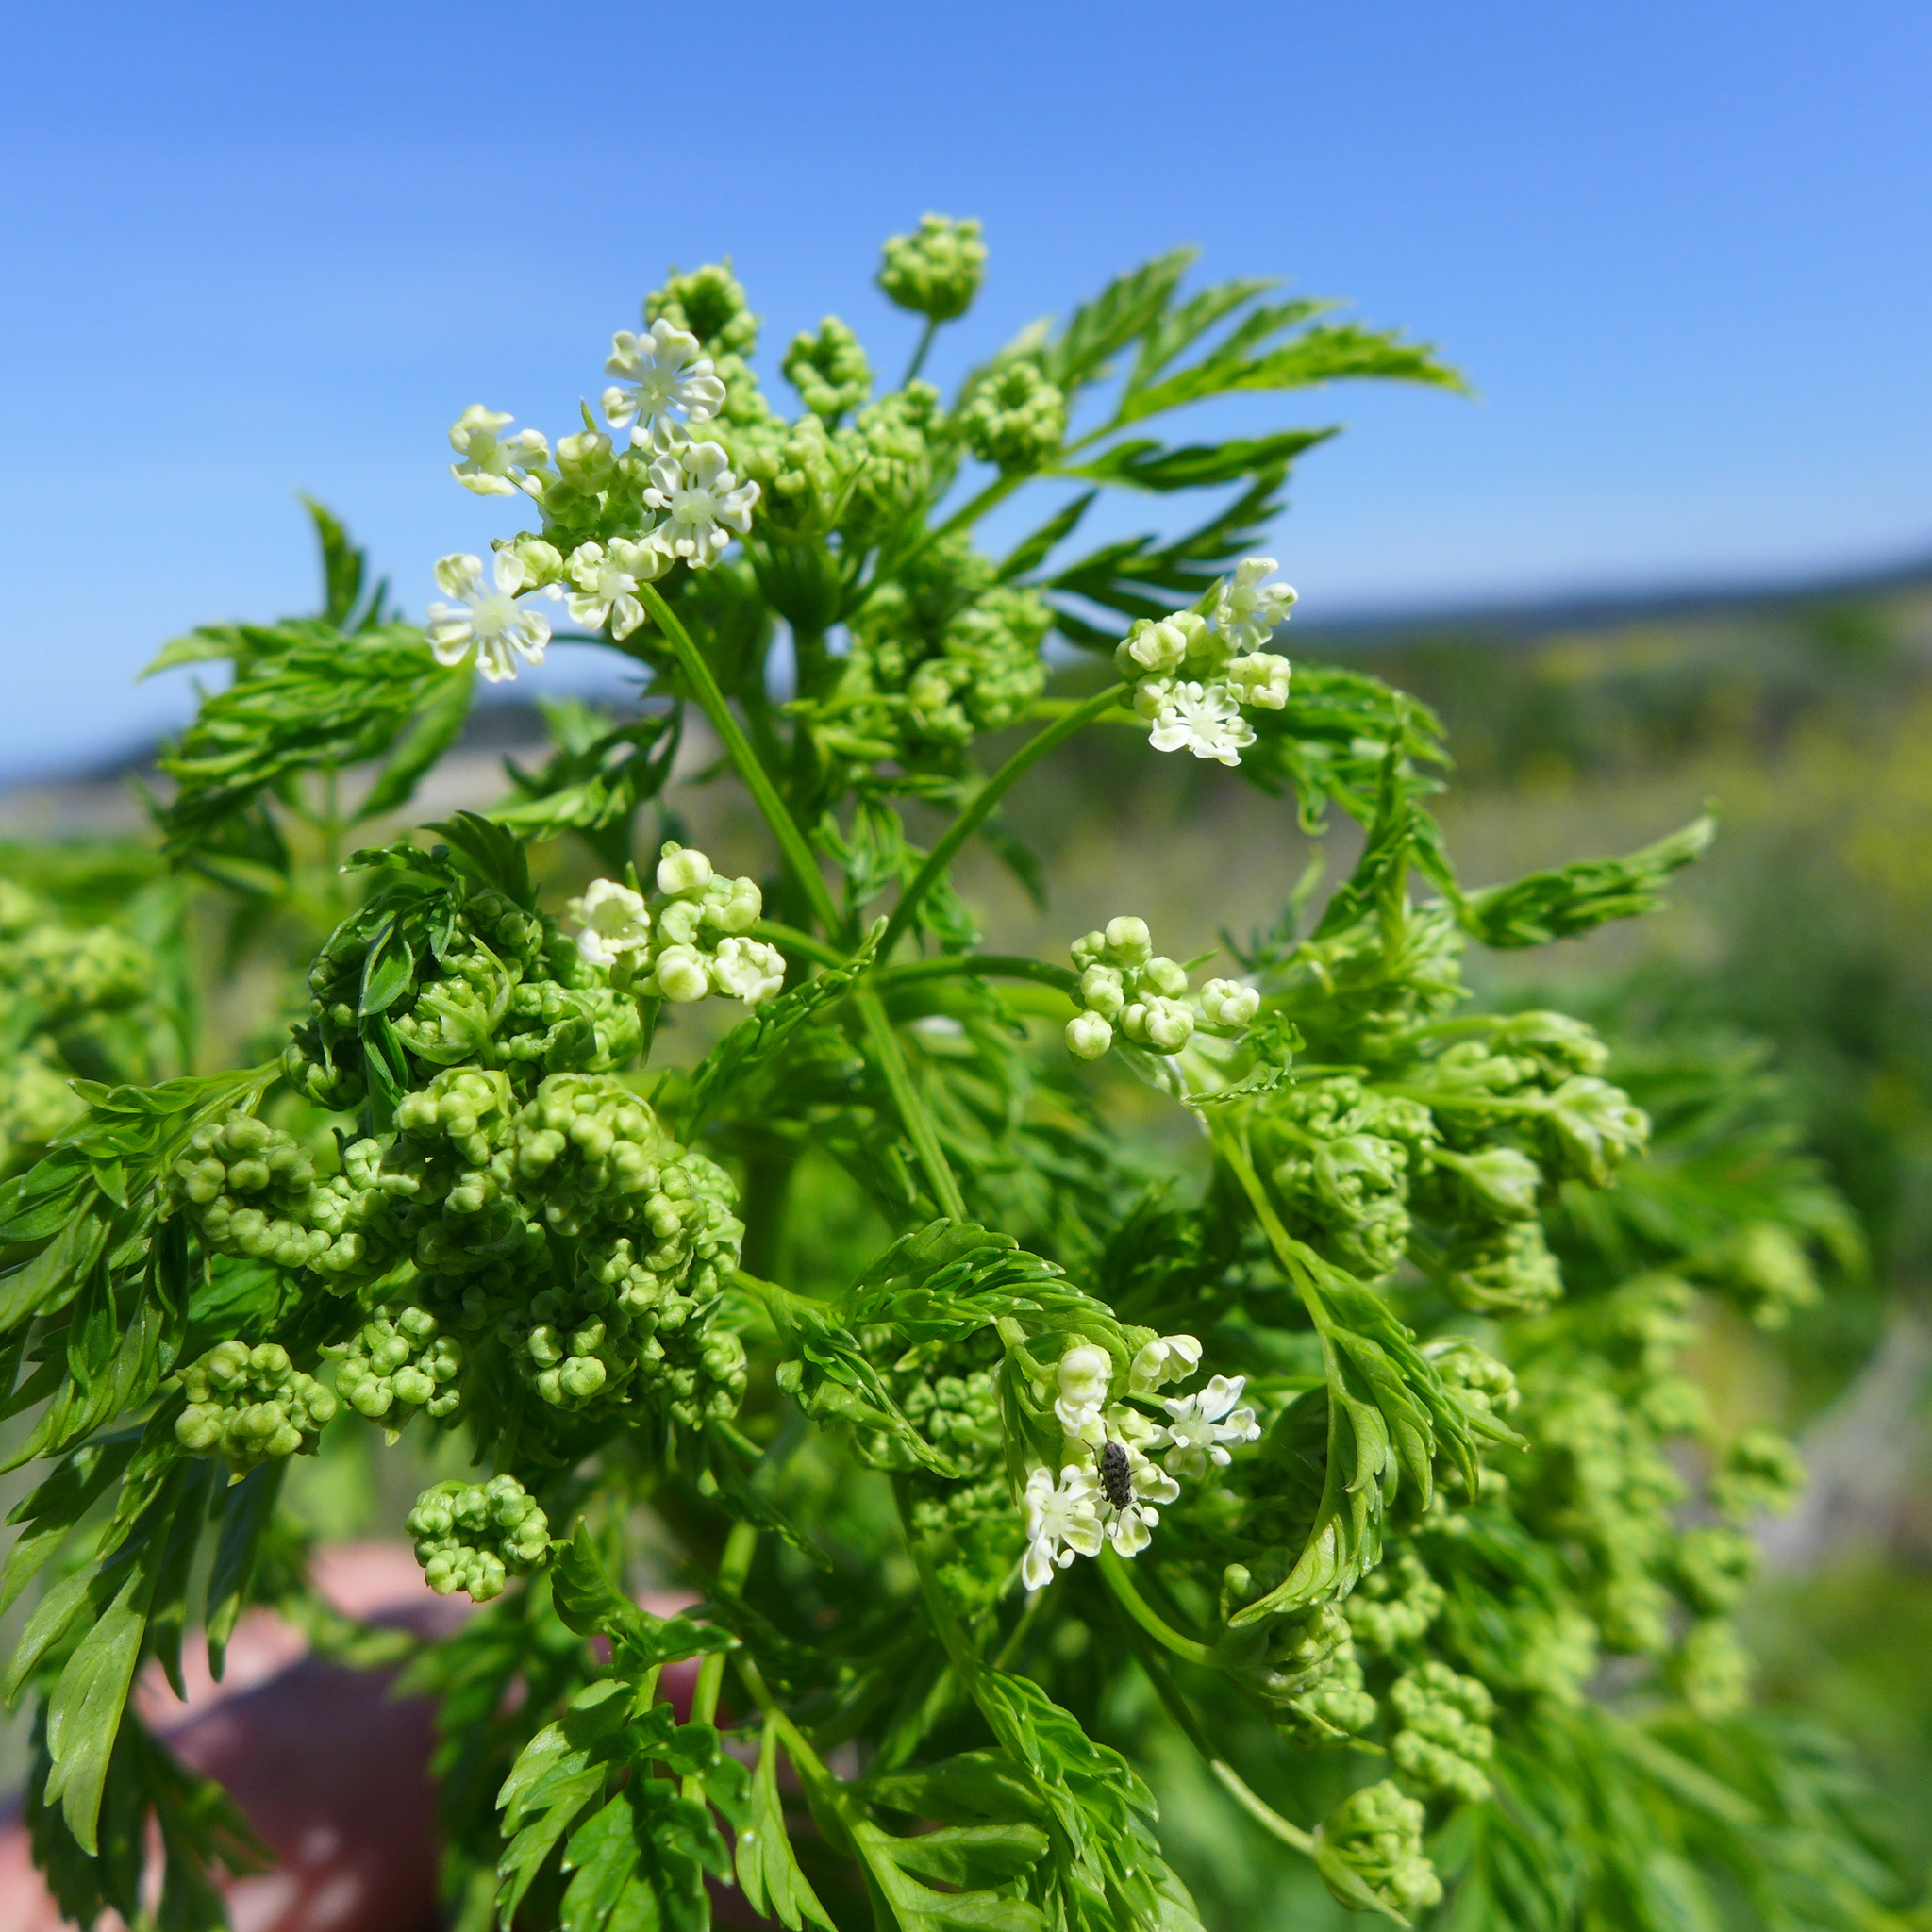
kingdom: Plantae
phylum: Tracheophyta
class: Magnoliopsida
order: Apiales
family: Apiaceae
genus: Conium
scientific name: Conium maculatum
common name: Hemlock
